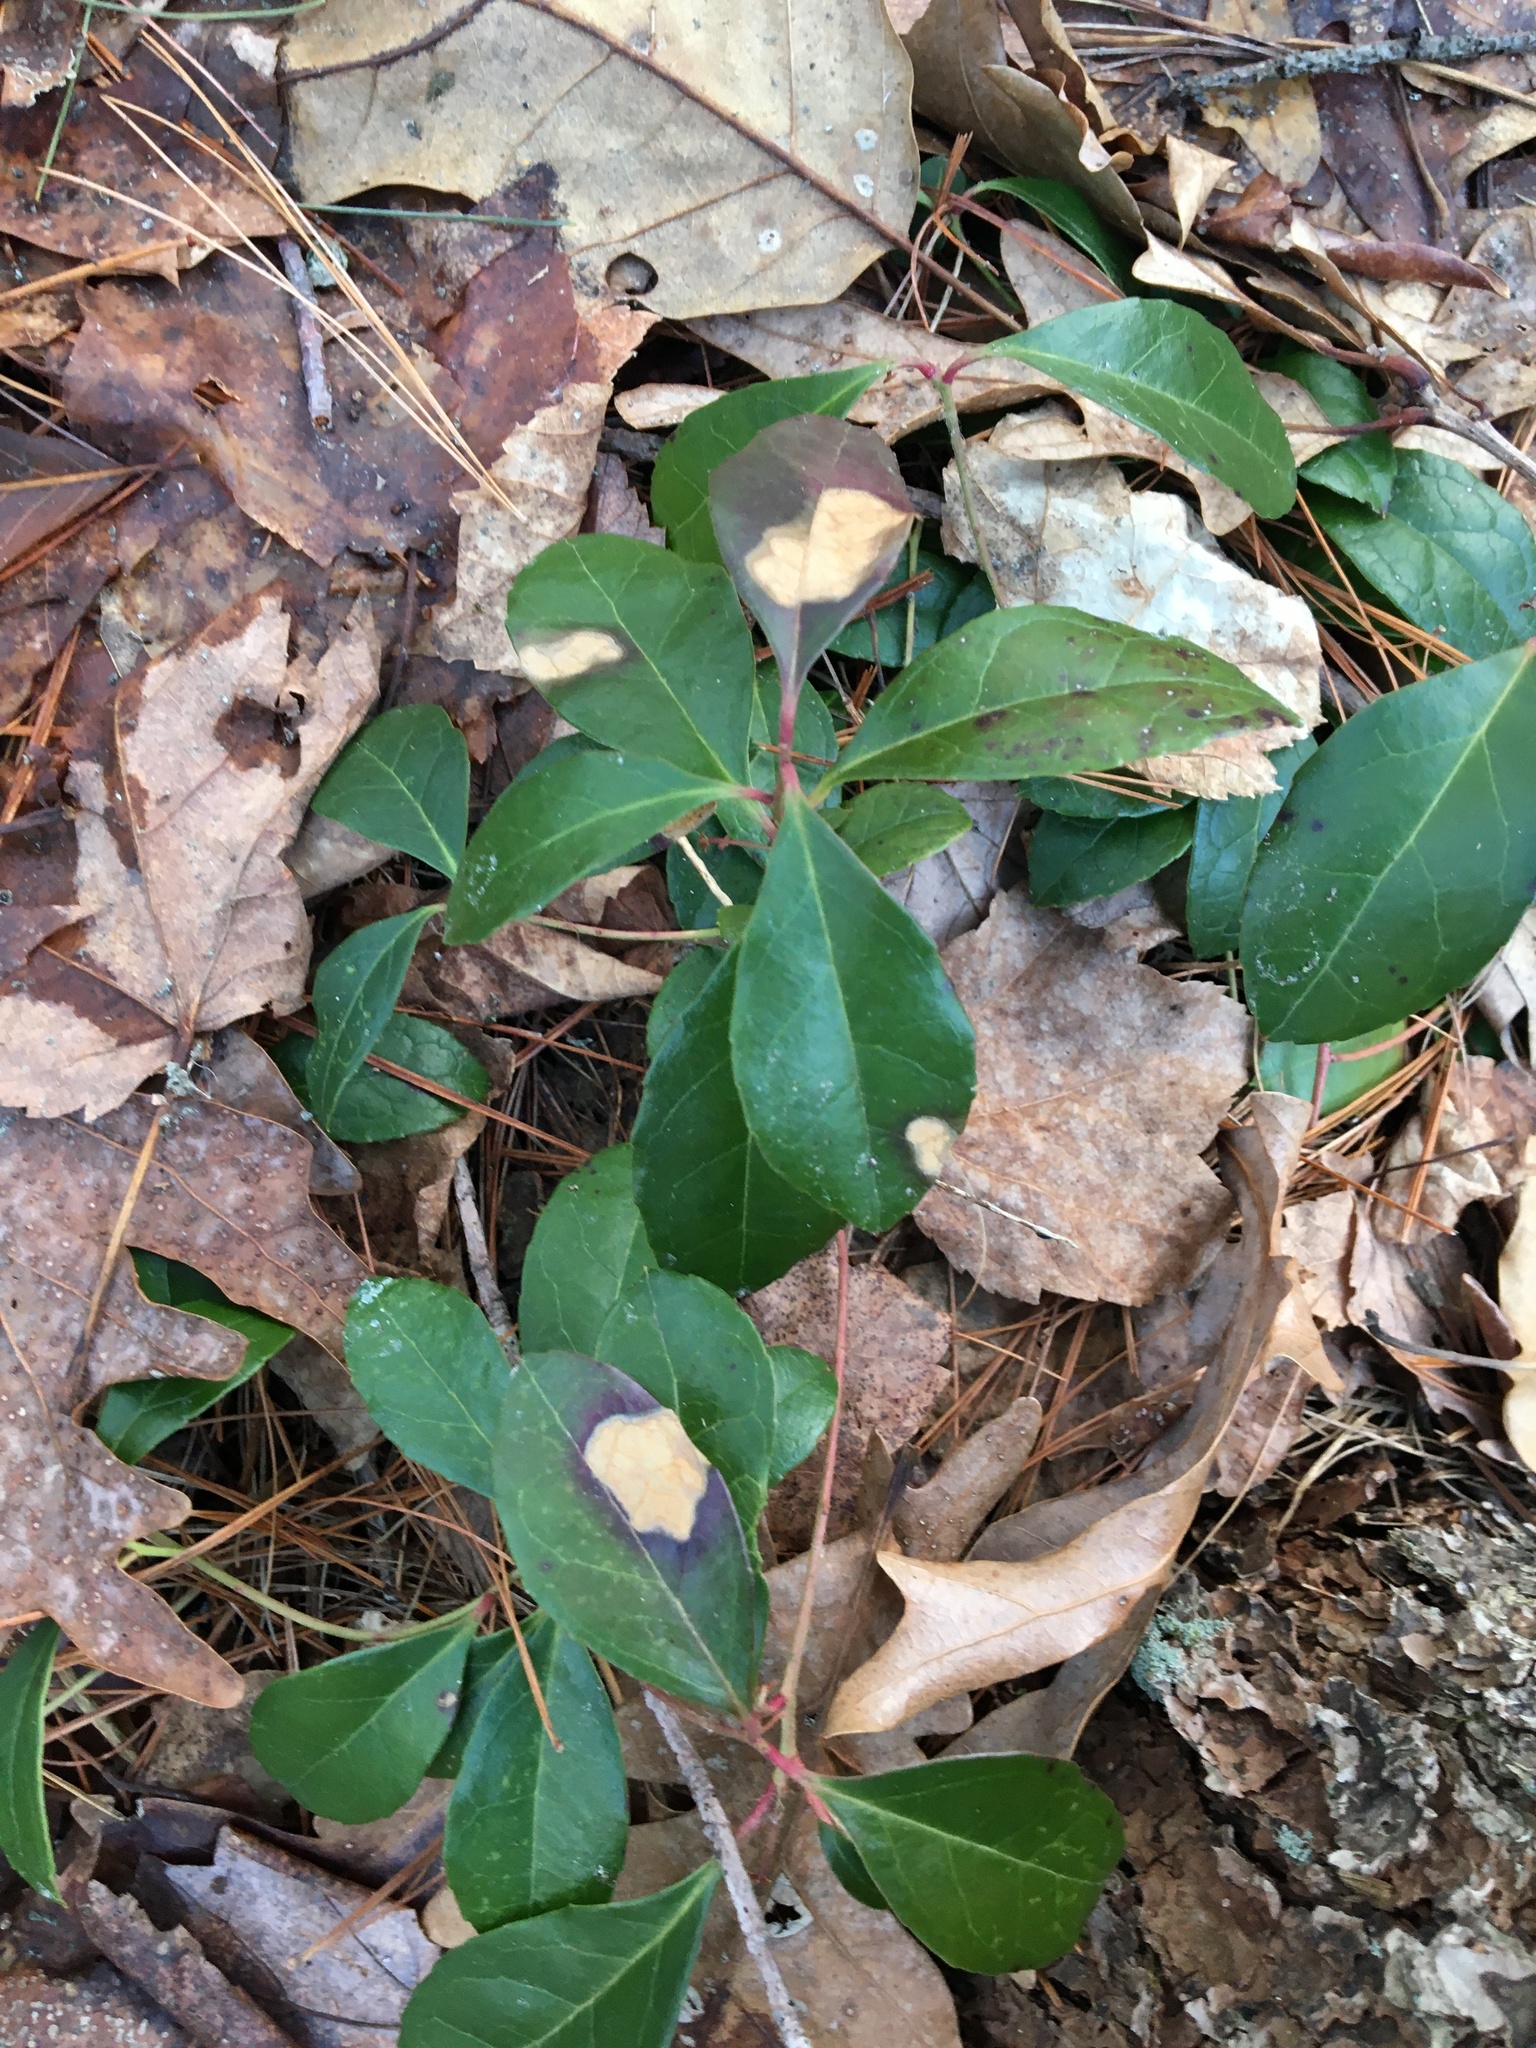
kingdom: Plantae
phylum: Tracheophyta
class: Magnoliopsida
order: Ericales
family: Ericaceae
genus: Gaultheria
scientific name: Gaultheria procumbens
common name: Checkerberry
